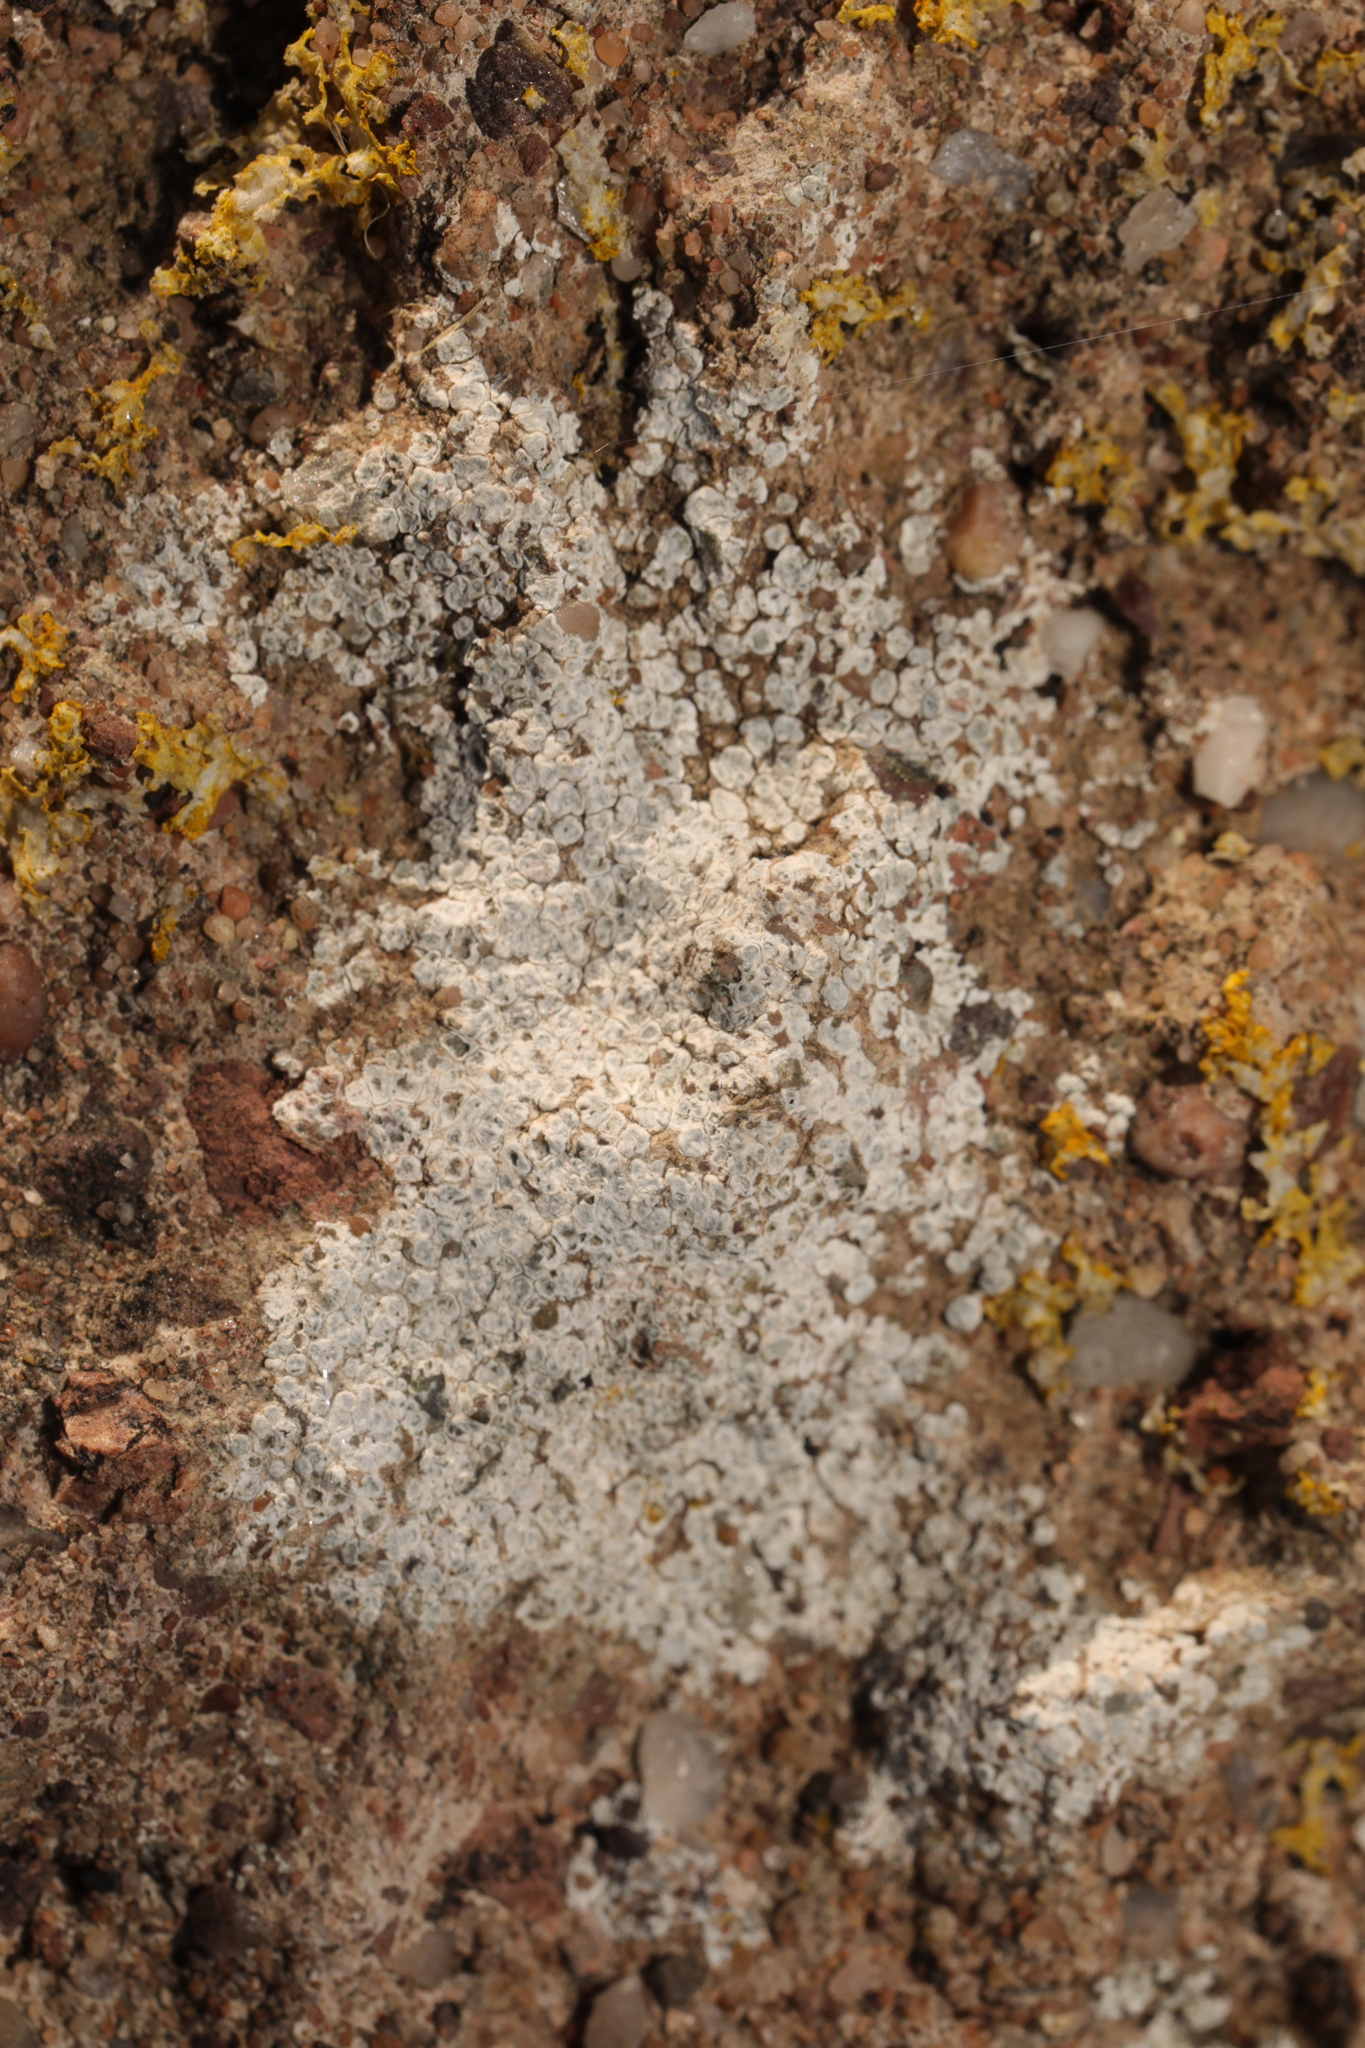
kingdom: Fungi
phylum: Ascomycota
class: Lecanoromycetes
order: Pertusariales
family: Megasporaceae
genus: Circinaria
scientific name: Circinaria contorta
